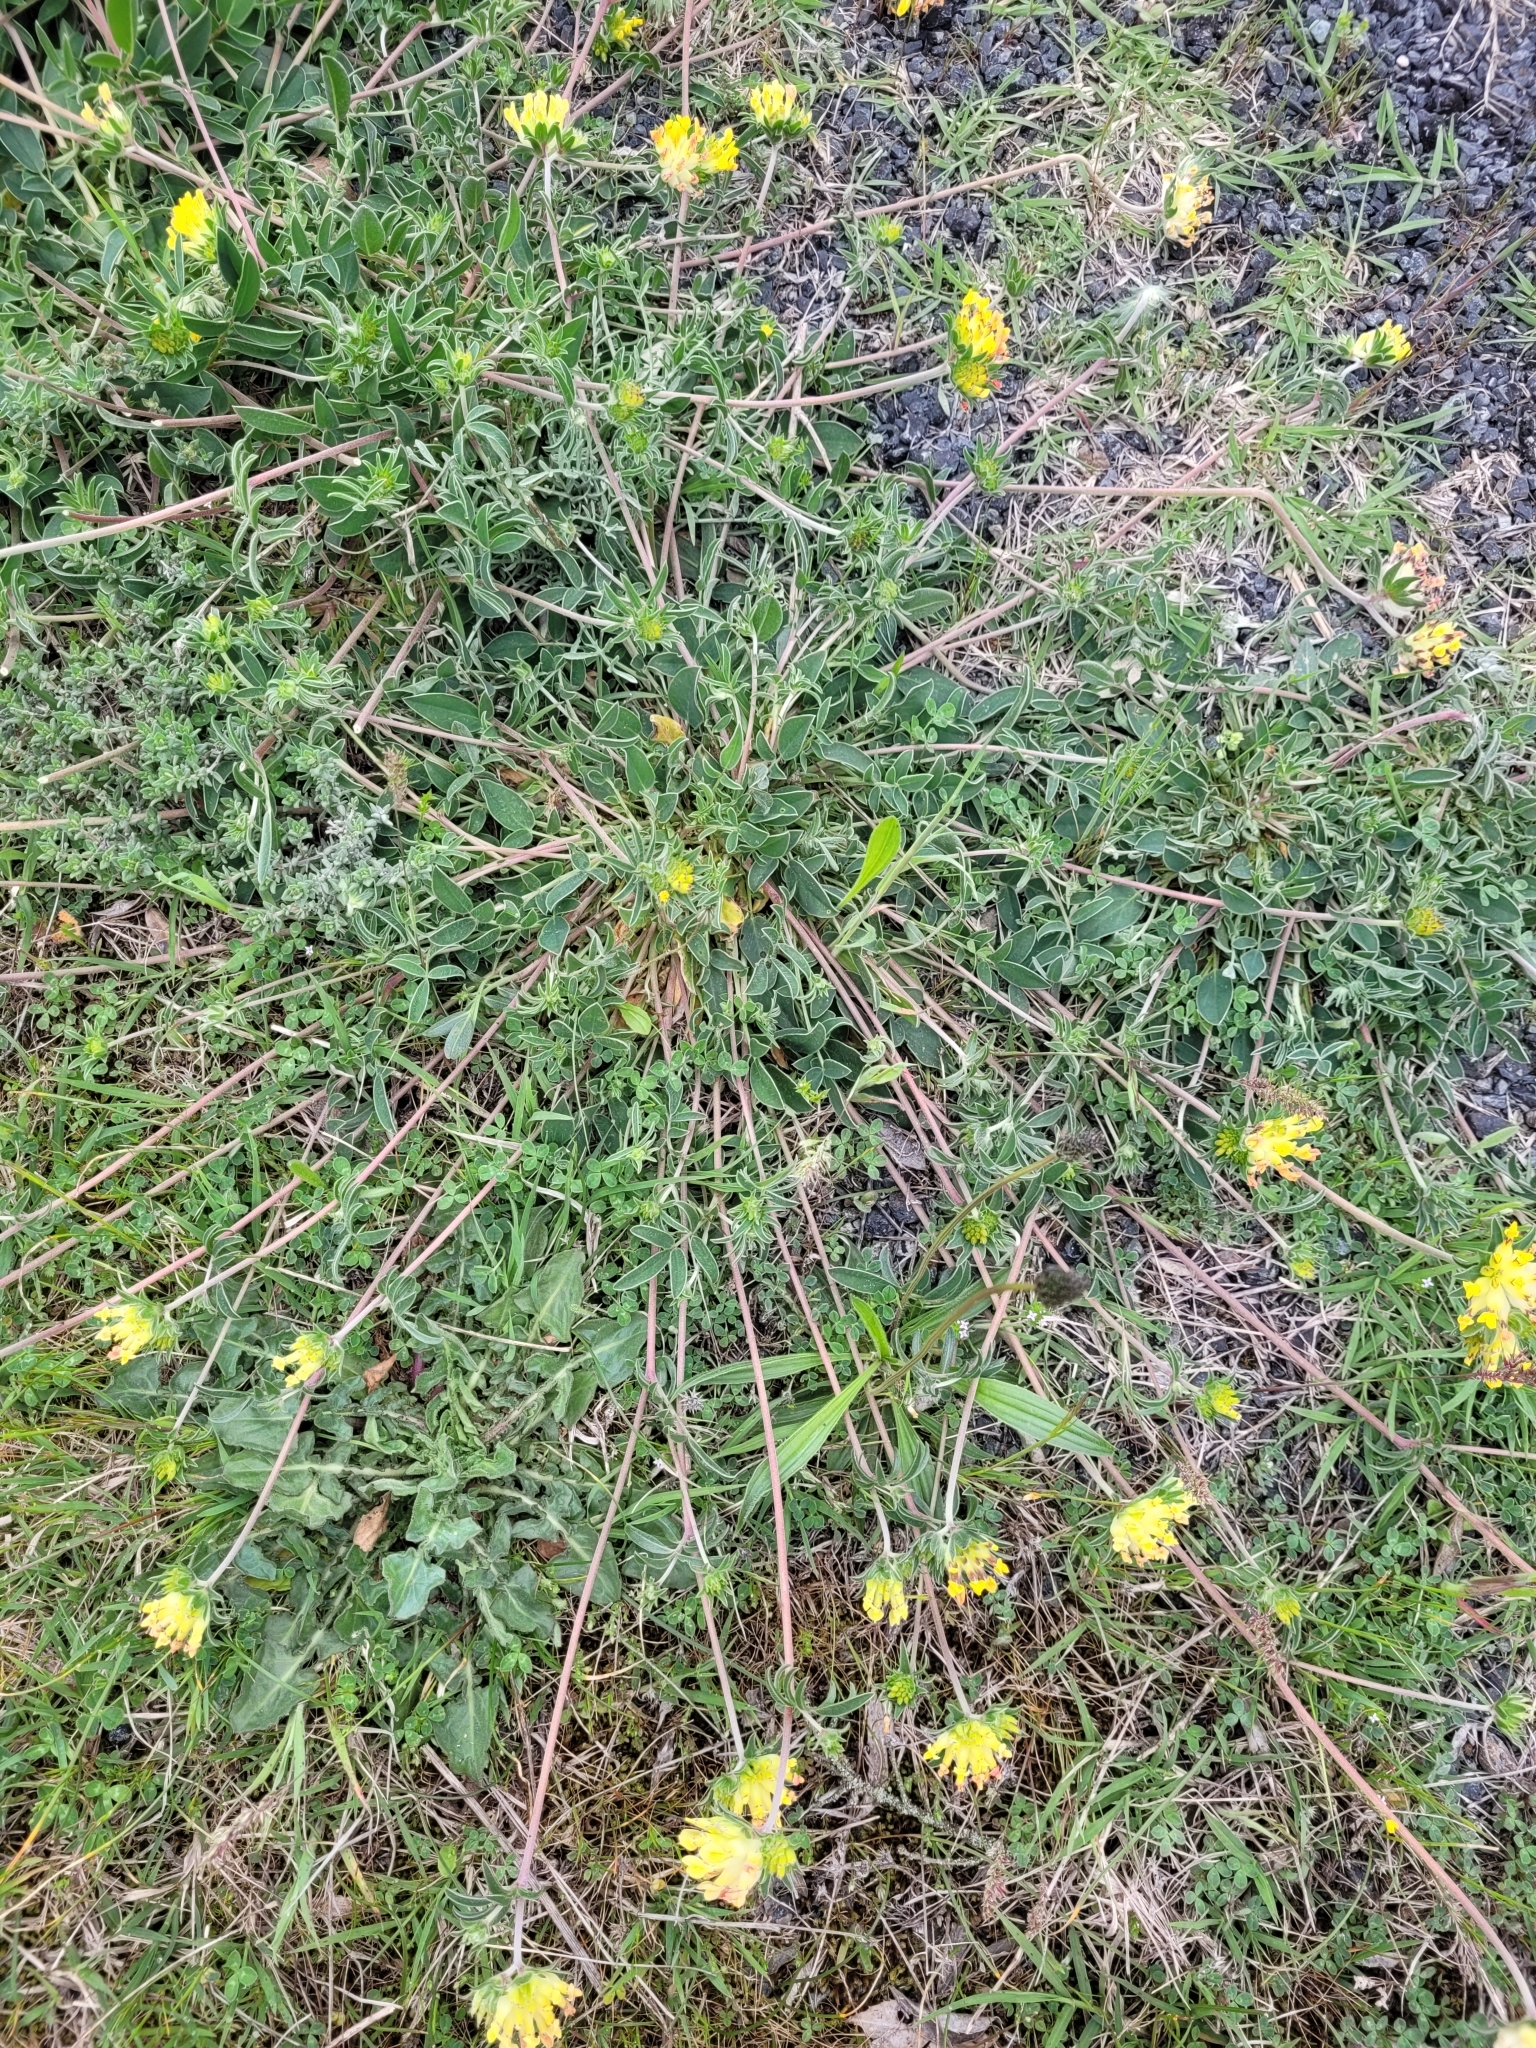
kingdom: Plantae
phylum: Tracheophyta
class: Magnoliopsida
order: Fabales
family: Fabaceae
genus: Anthyllis
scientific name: Anthyllis vulneraria
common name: Kidney vetch
